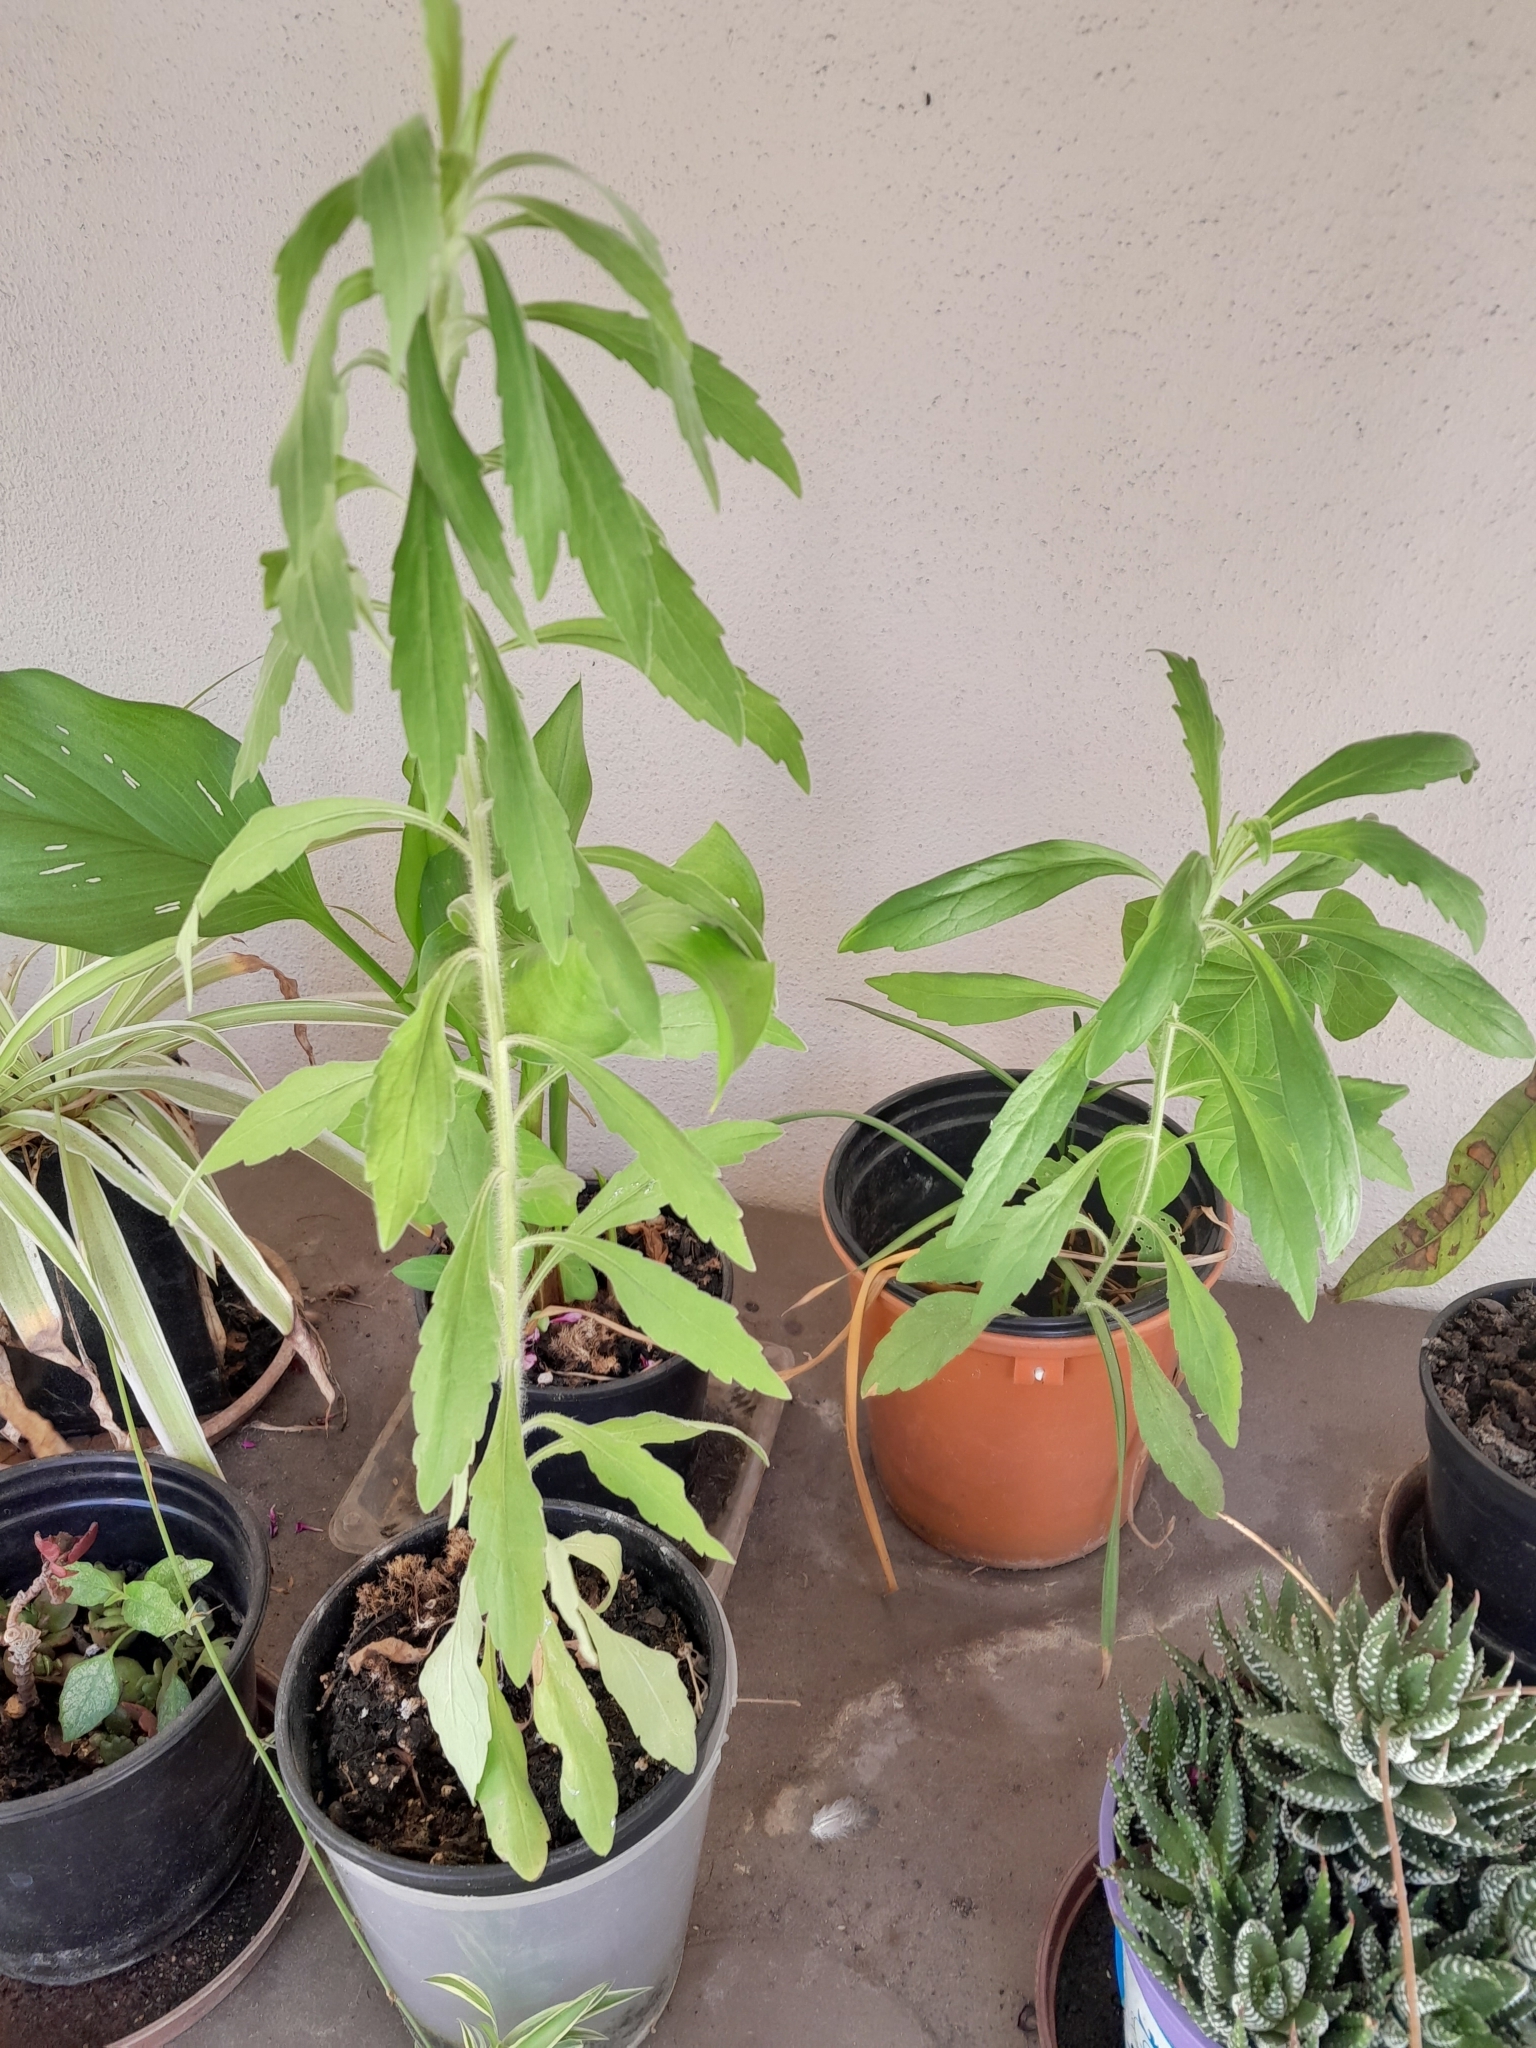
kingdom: Plantae
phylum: Tracheophyta
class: Magnoliopsida
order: Asterales
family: Asteraceae
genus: Erigeron
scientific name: Erigeron sumatrensis
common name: Daisy
